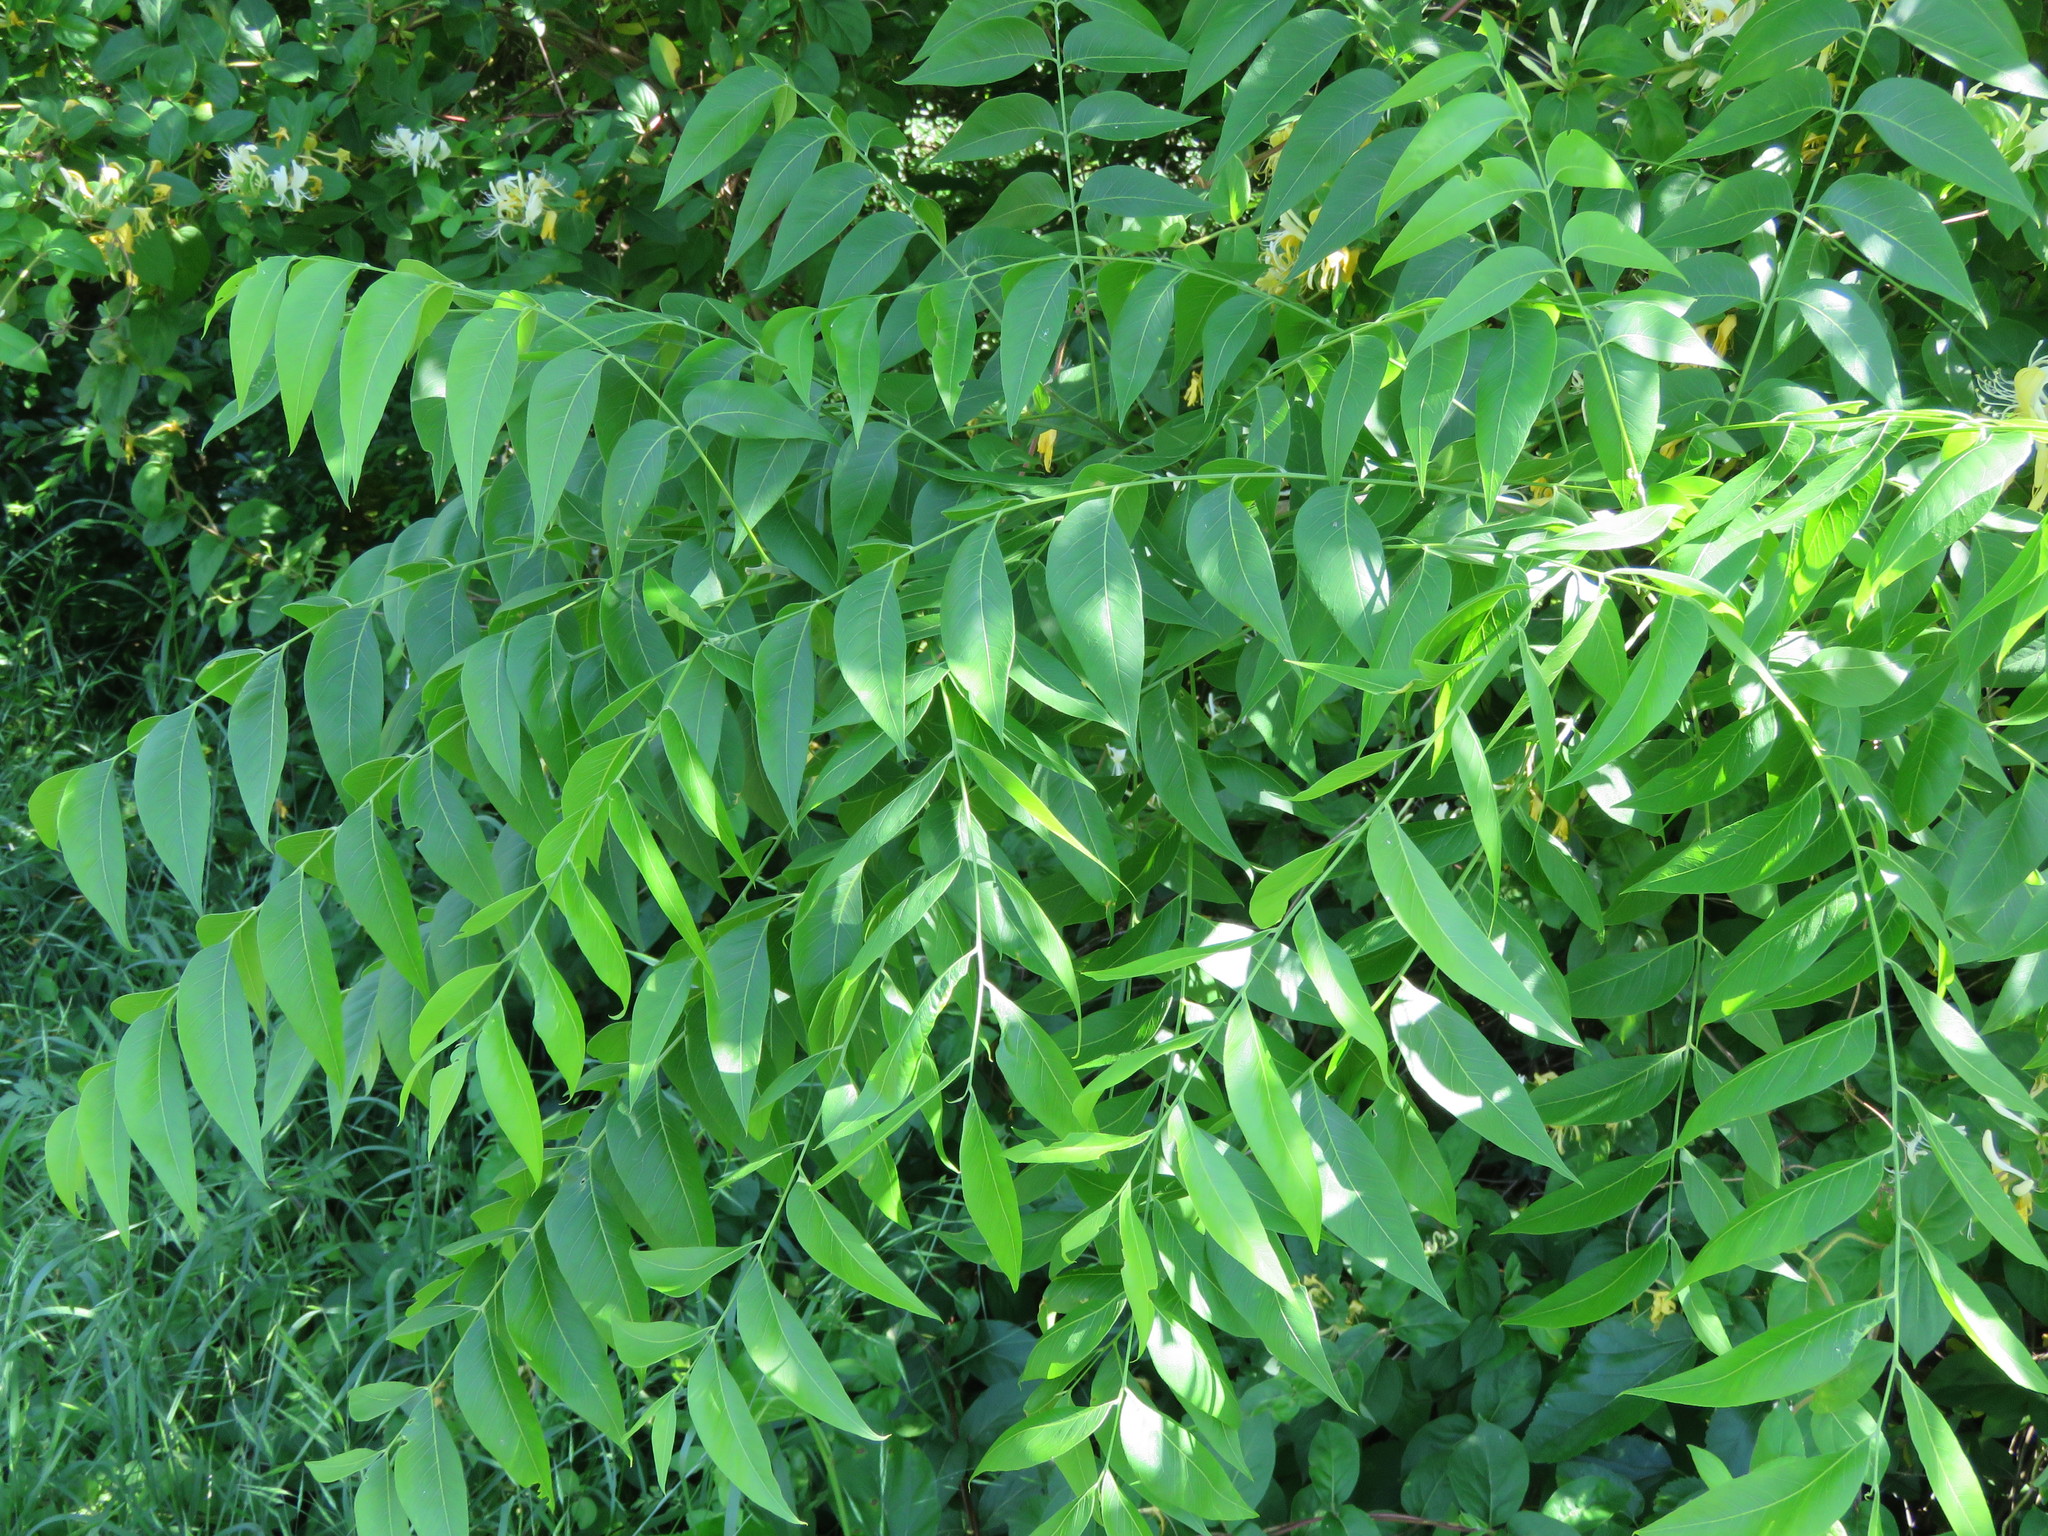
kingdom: Plantae
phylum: Tracheophyta
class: Magnoliopsida
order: Sapindales
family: Sapindaceae
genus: Sapindus
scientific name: Sapindus drummondii
